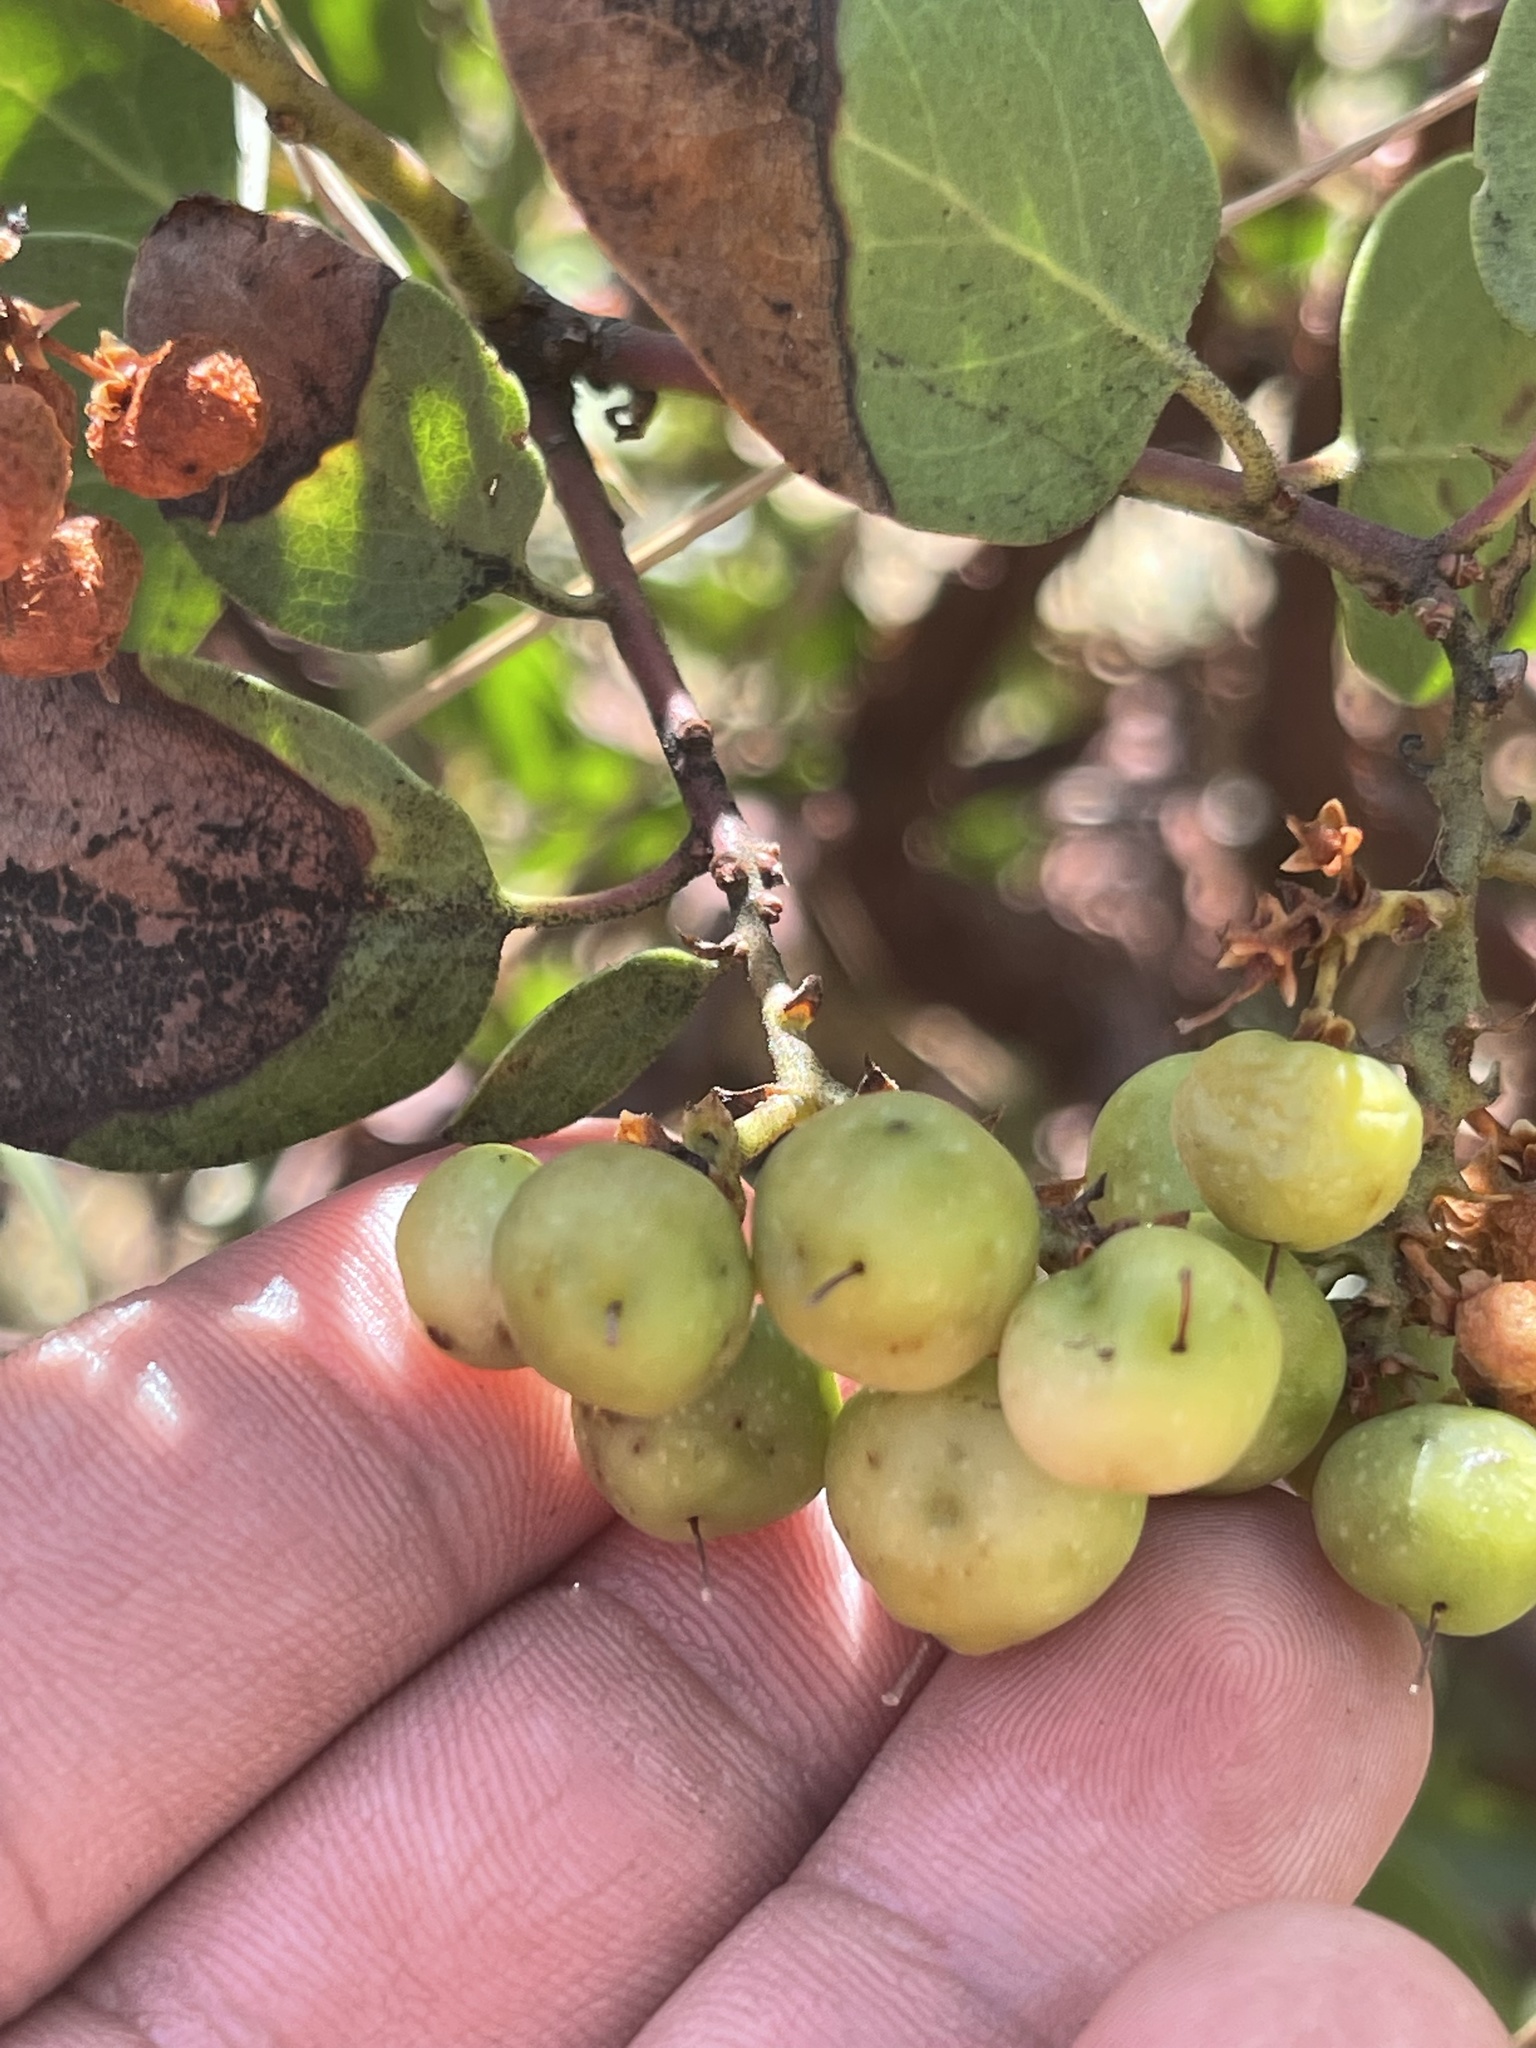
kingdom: Plantae
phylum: Tracheophyta
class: Magnoliopsida
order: Ericales
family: Ericaceae
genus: Arctostaphylos
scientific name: Arctostaphylos patula
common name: Green-leaf manzanita
